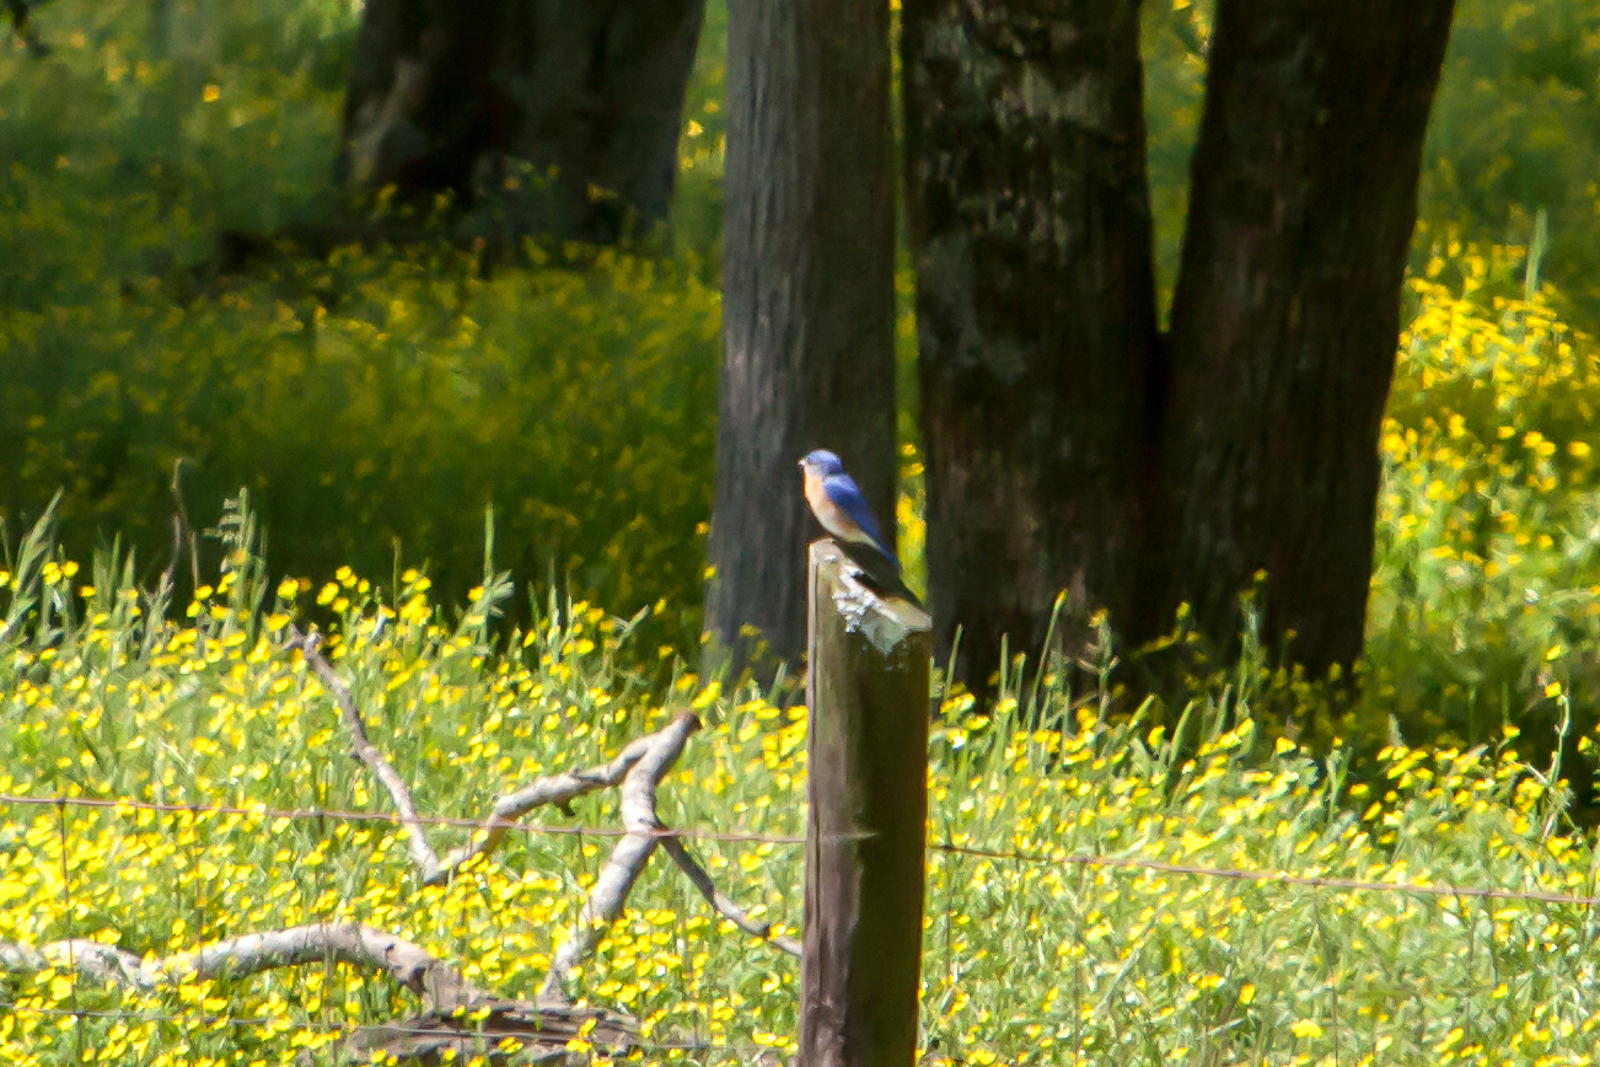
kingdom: Animalia
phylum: Chordata
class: Aves
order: Passeriformes
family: Turdidae
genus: Sialia
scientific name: Sialia sialis
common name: Eastern bluebird
